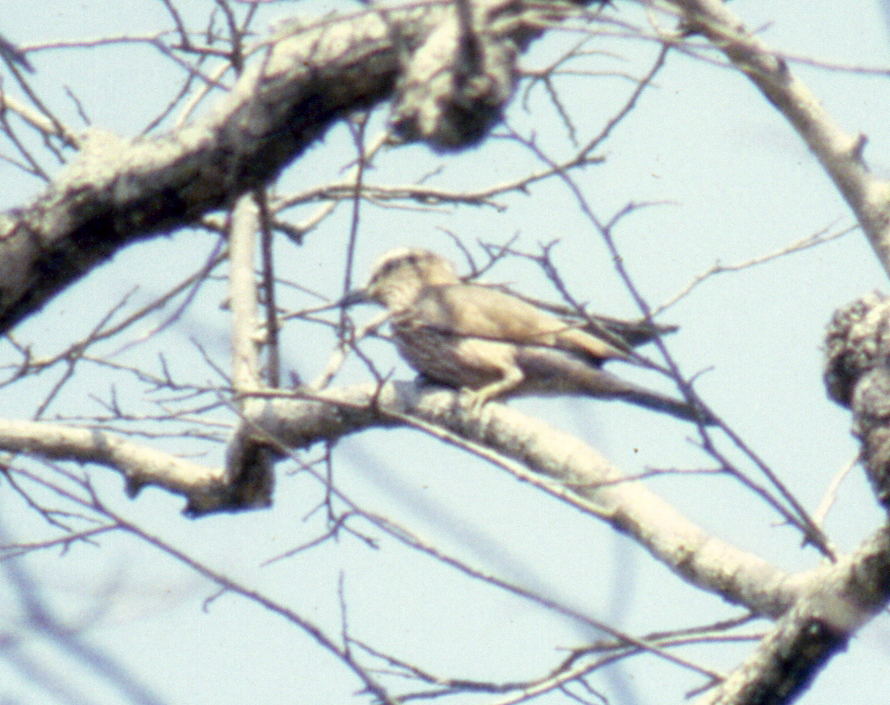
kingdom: Animalia
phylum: Chordata
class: Aves
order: Coraciiformes
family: Coraciidae
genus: Coracias
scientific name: Coracias naevius
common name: Purple roller
